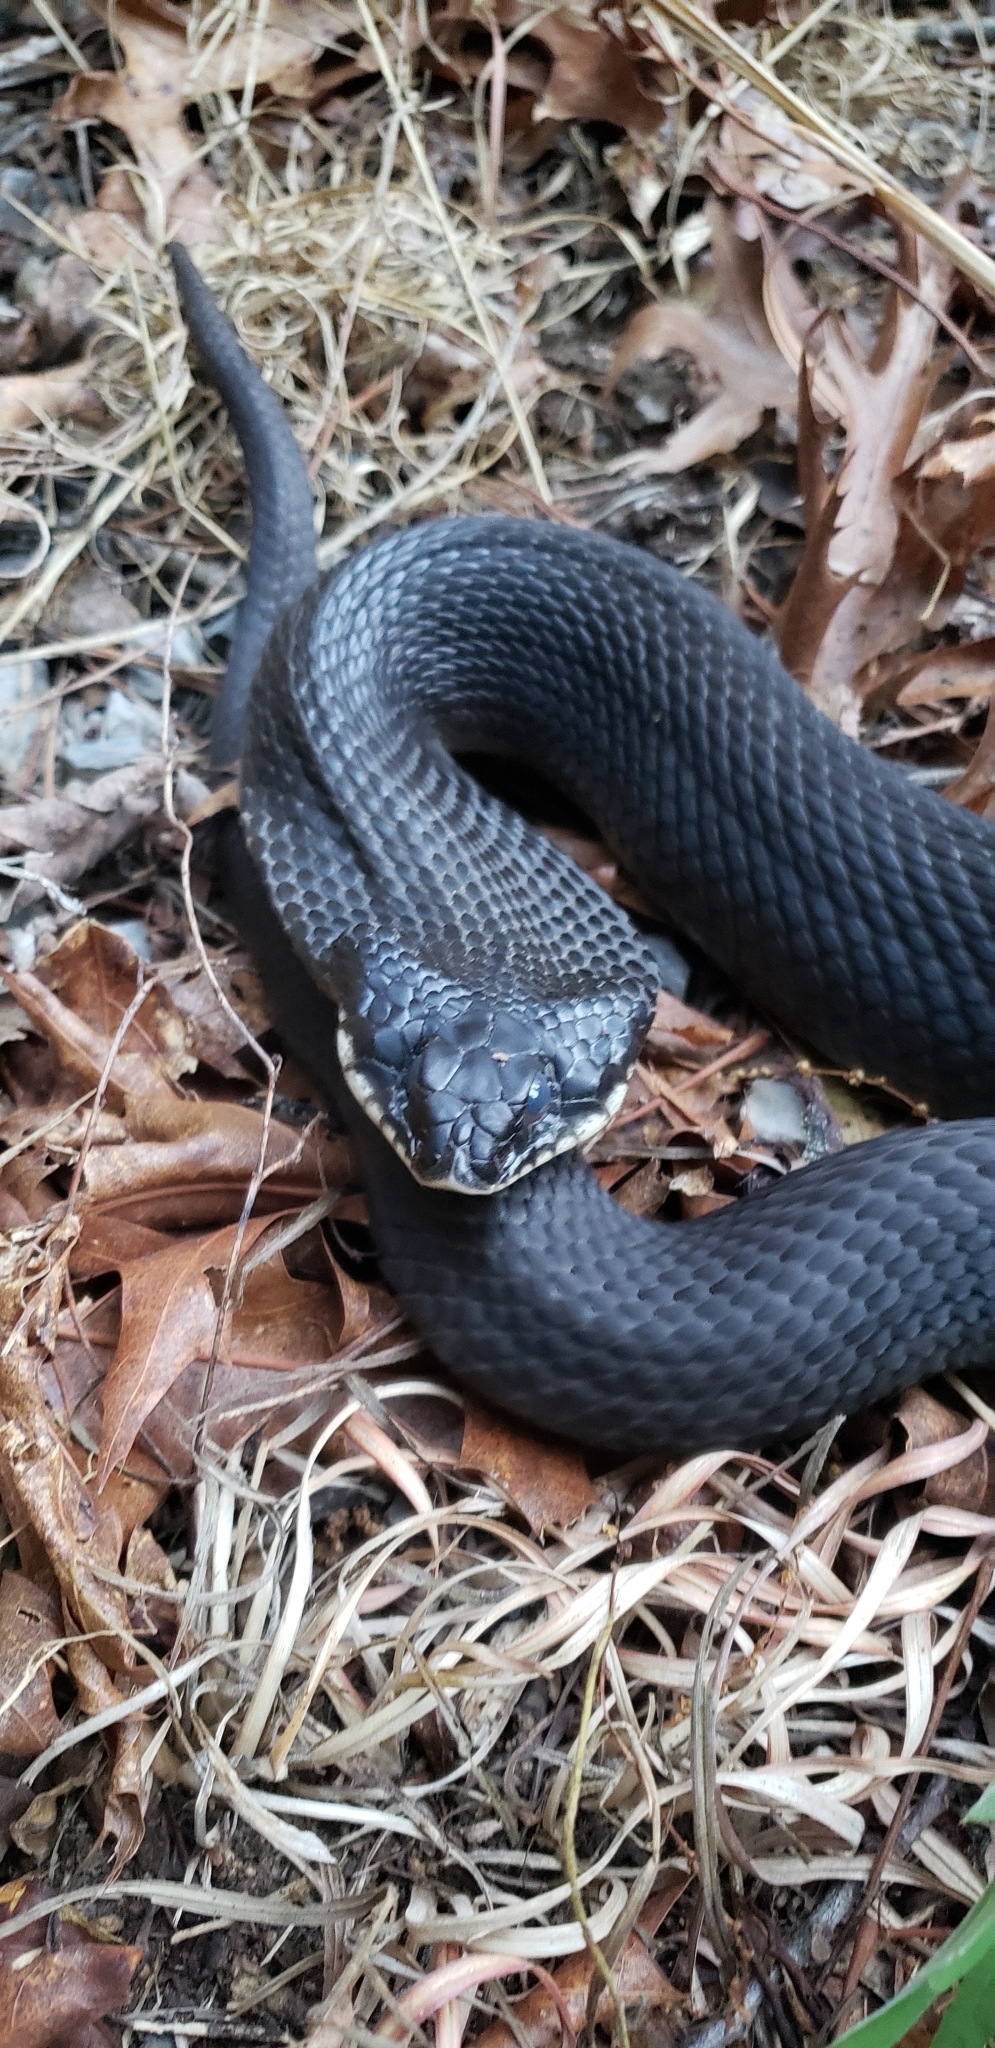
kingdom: Animalia
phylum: Chordata
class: Squamata
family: Colubridae
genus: Heterodon
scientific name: Heterodon platirhinos
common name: Eastern hognose snake
